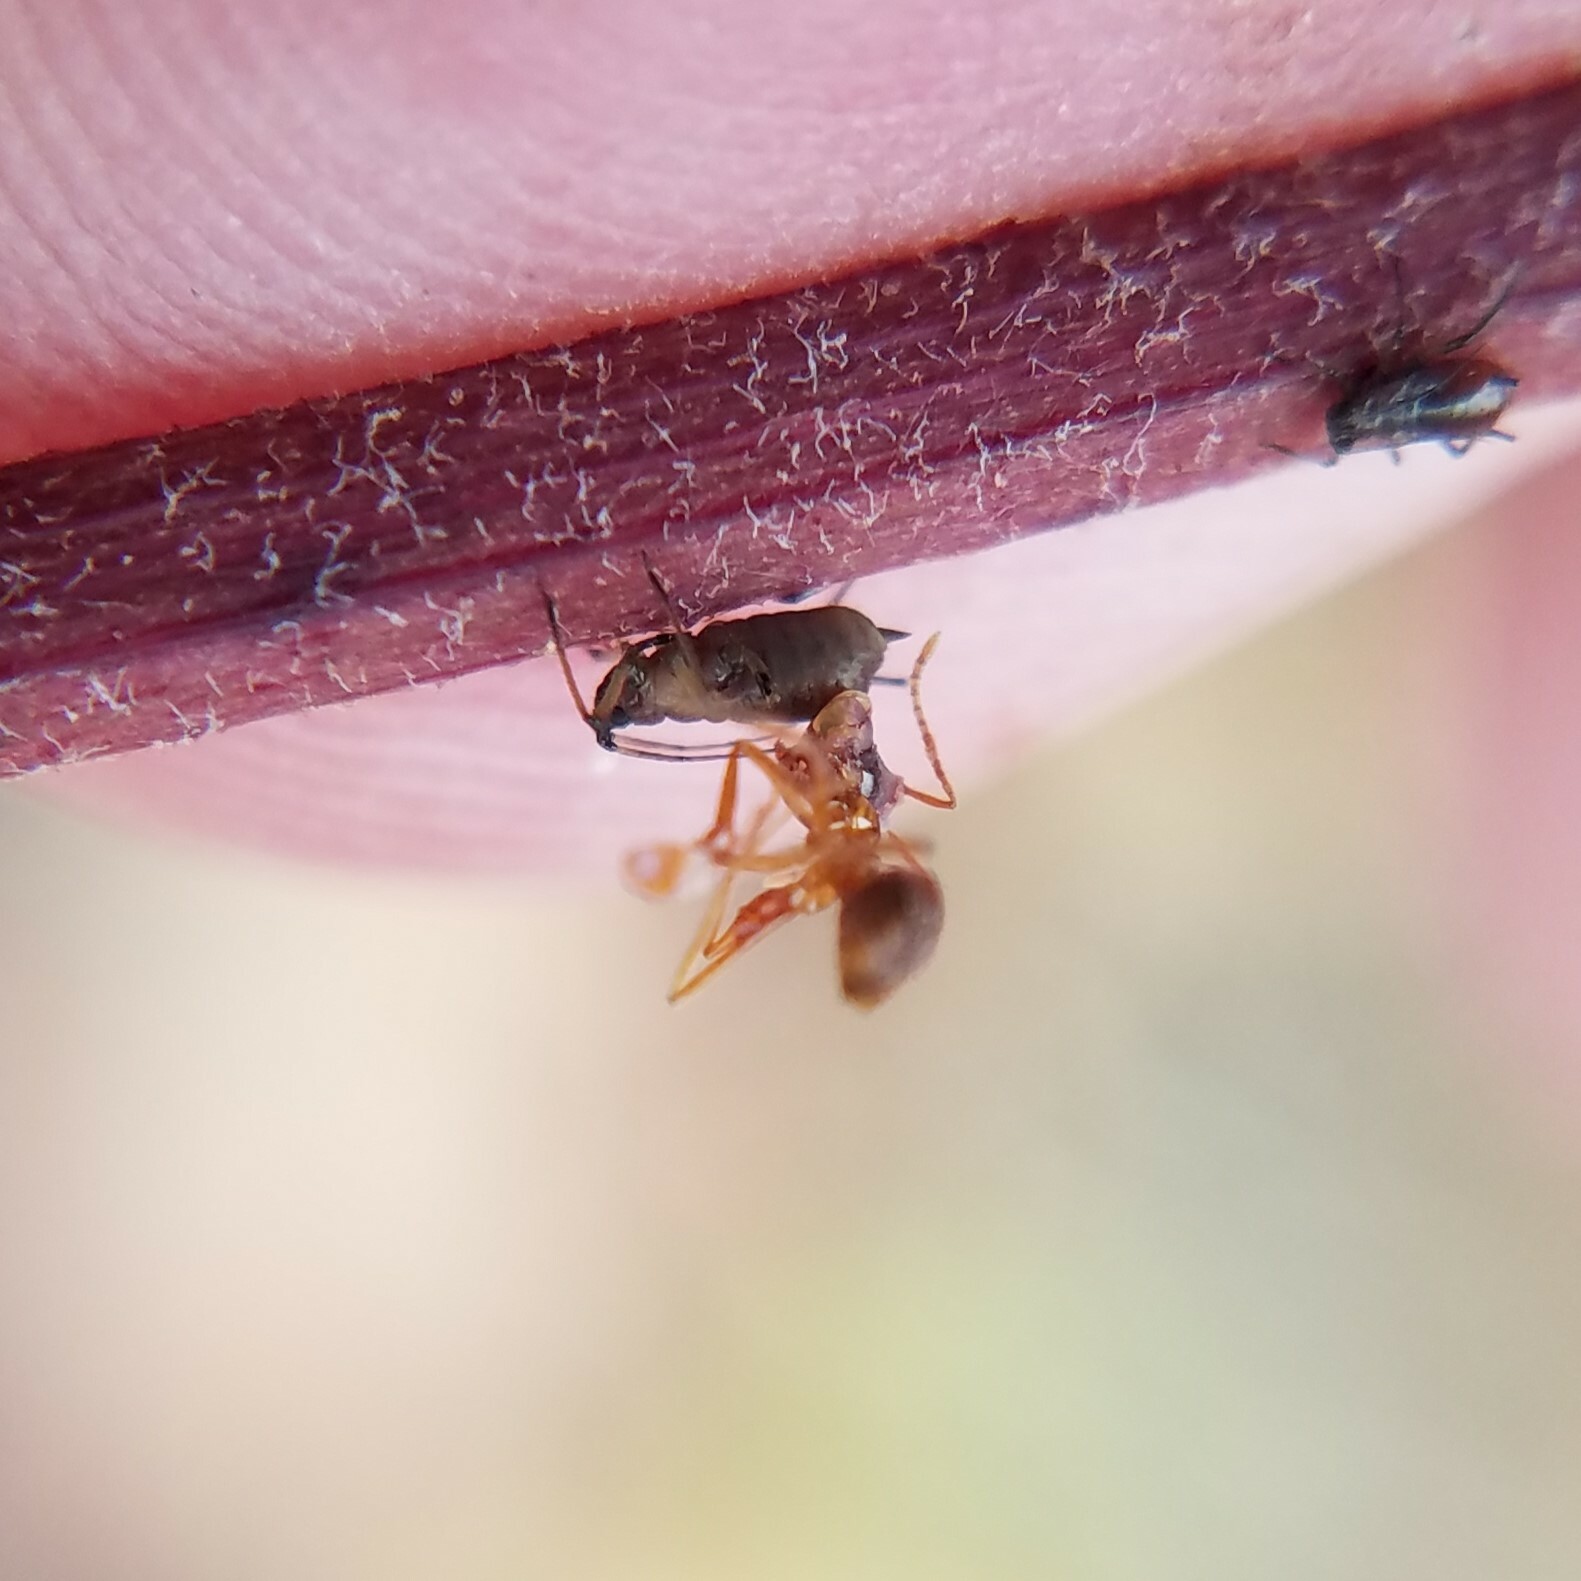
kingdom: Animalia
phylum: Arthropoda
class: Insecta
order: Hymenoptera
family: Formicidae
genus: Prenolepis
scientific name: Prenolepis imparis
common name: Small honey ant
